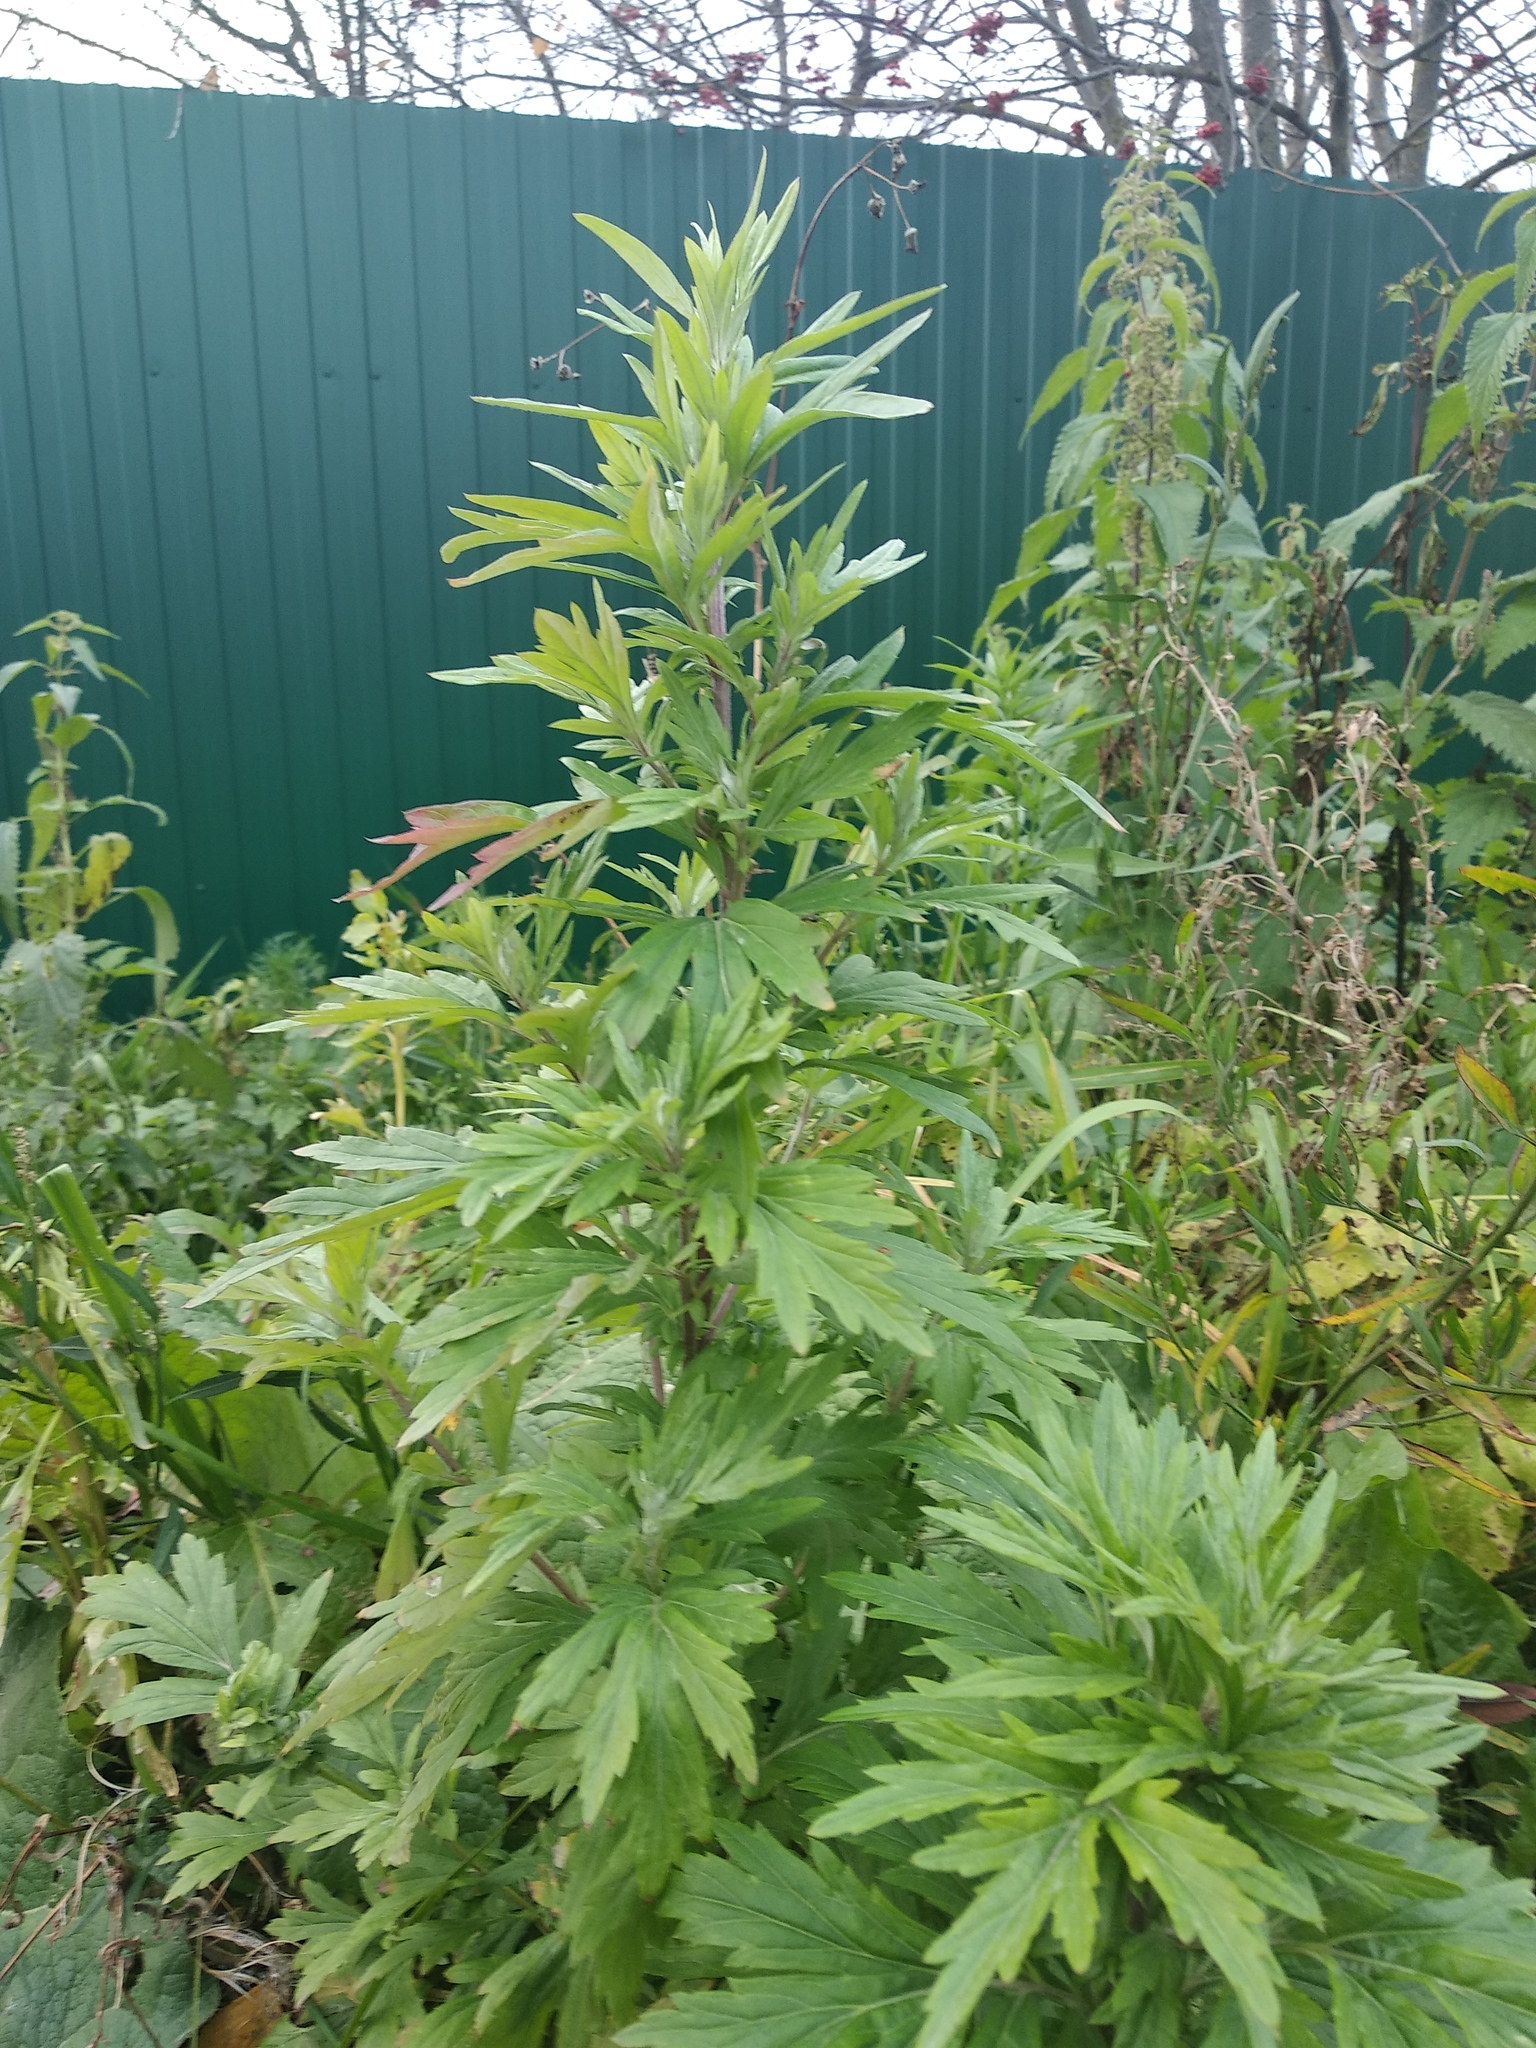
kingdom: Plantae
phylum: Tracheophyta
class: Magnoliopsida
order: Asterales
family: Asteraceae
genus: Artemisia
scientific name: Artemisia vulgaris
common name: Mugwort
